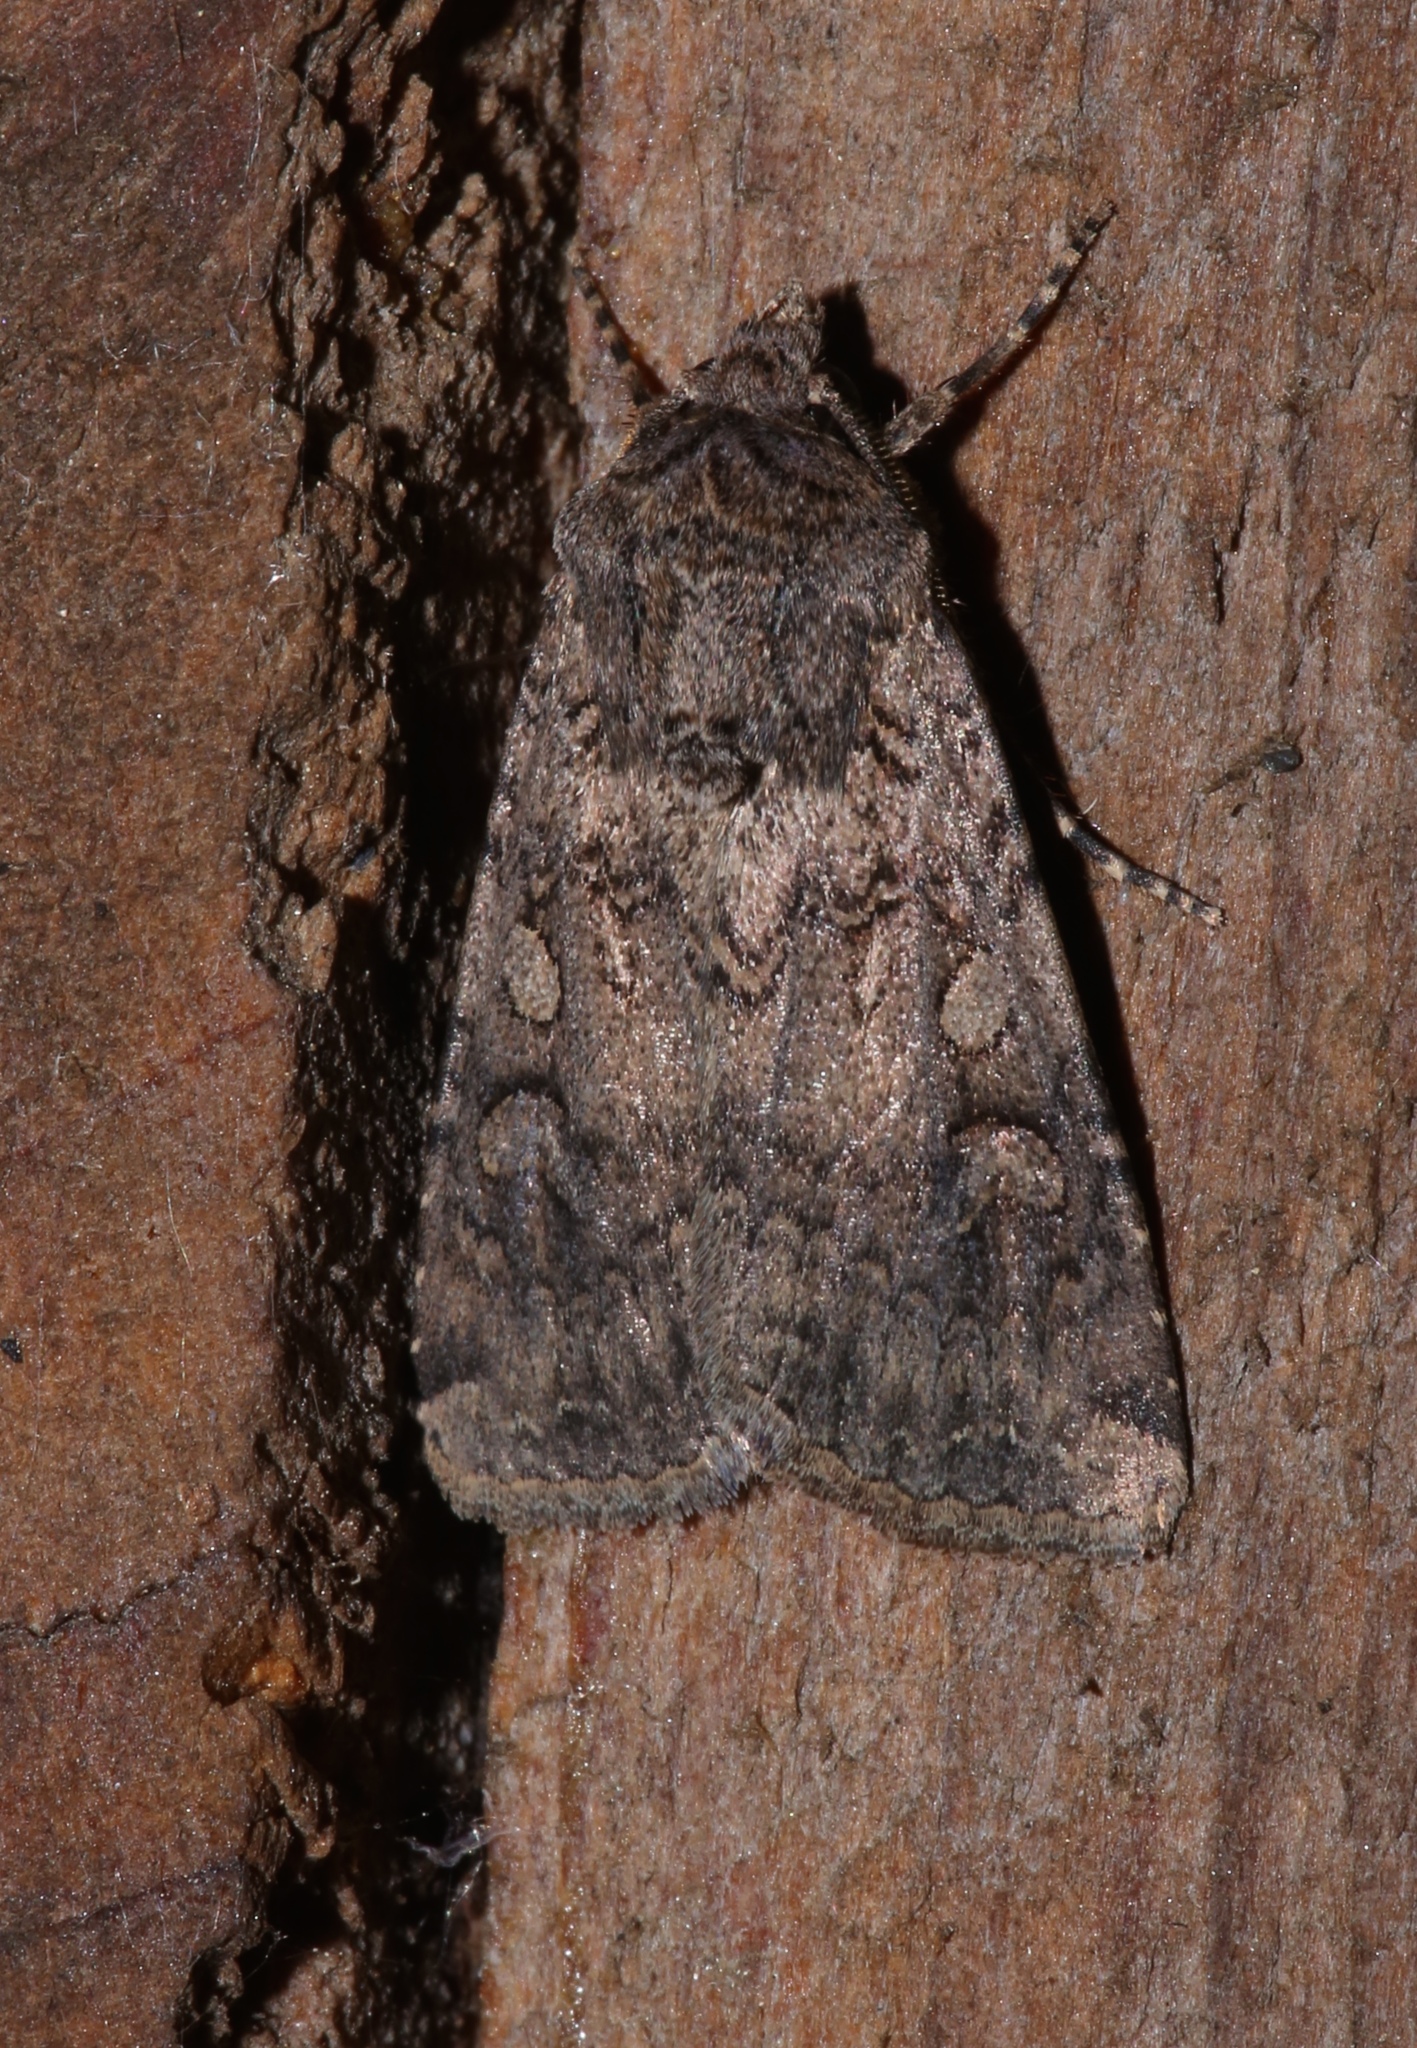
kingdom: Animalia
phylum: Arthropoda
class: Insecta
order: Lepidoptera
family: Noctuidae
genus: Euxoa
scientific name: Euxoa messoria
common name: Darksided cutworm
